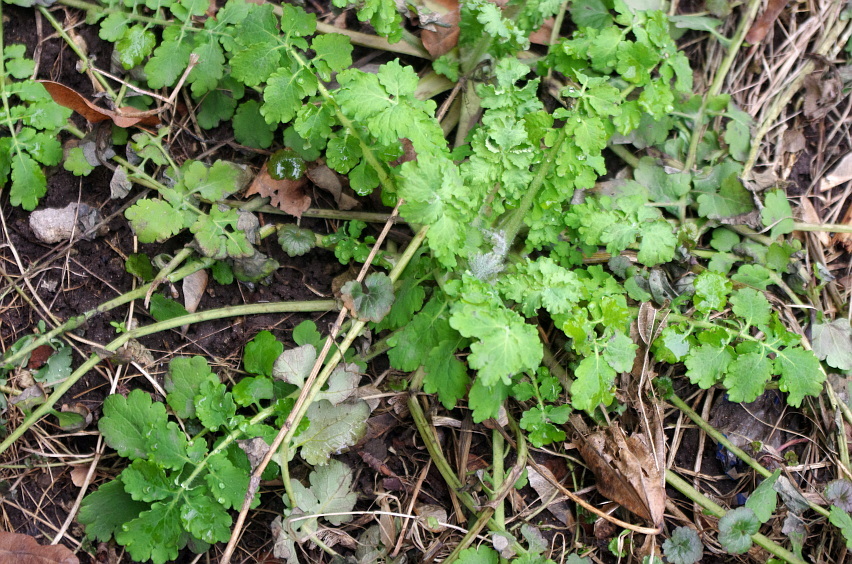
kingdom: Plantae
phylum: Tracheophyta
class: Magnoliopsida
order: Ranunculales
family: Papaveraceae
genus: Chelidonium
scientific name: Chelidonium majus
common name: Greater celandine
